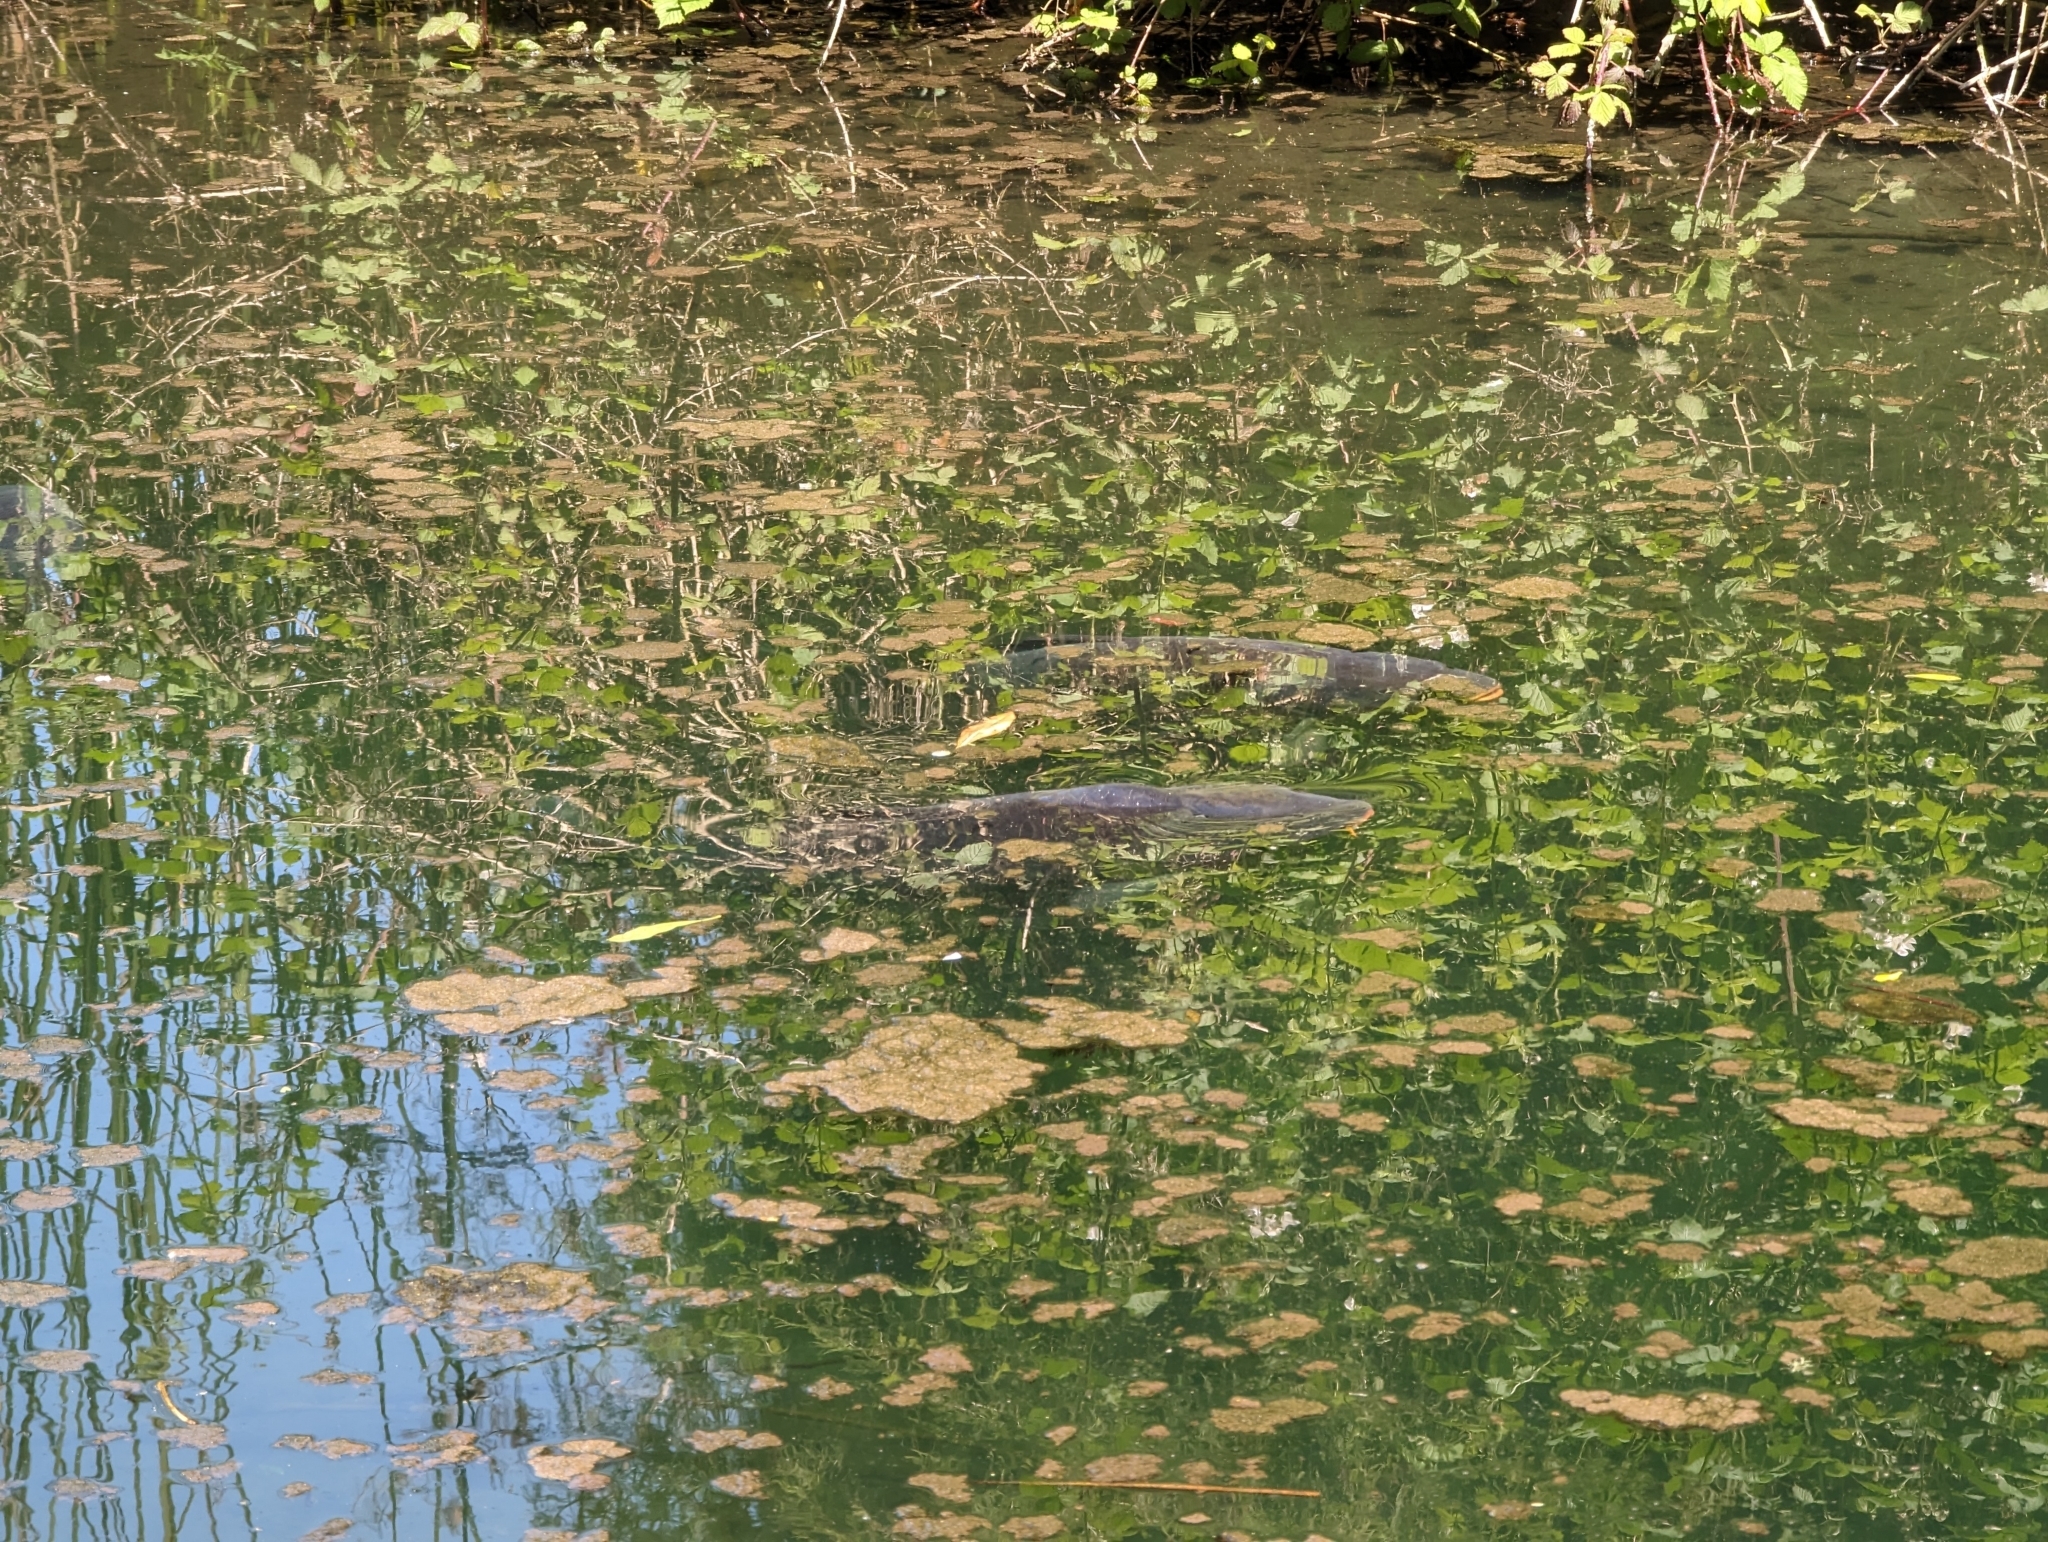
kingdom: Animalia
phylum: Chordata
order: Cypriniformes
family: Cyprinidae
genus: Cyprinus
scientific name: Cyprinus carpio
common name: Common carp
